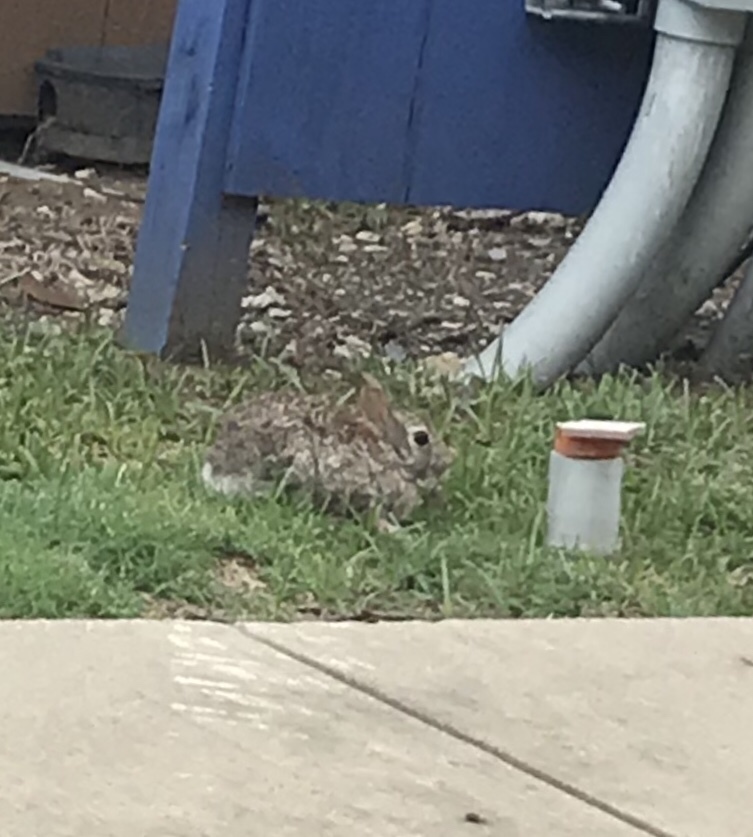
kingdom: Animalia
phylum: Chordata
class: Mammalia
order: Lagomorpha
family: Leporidae
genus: Sylvilagus
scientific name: Sylvilagus floridanus
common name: Eastern cottontail
